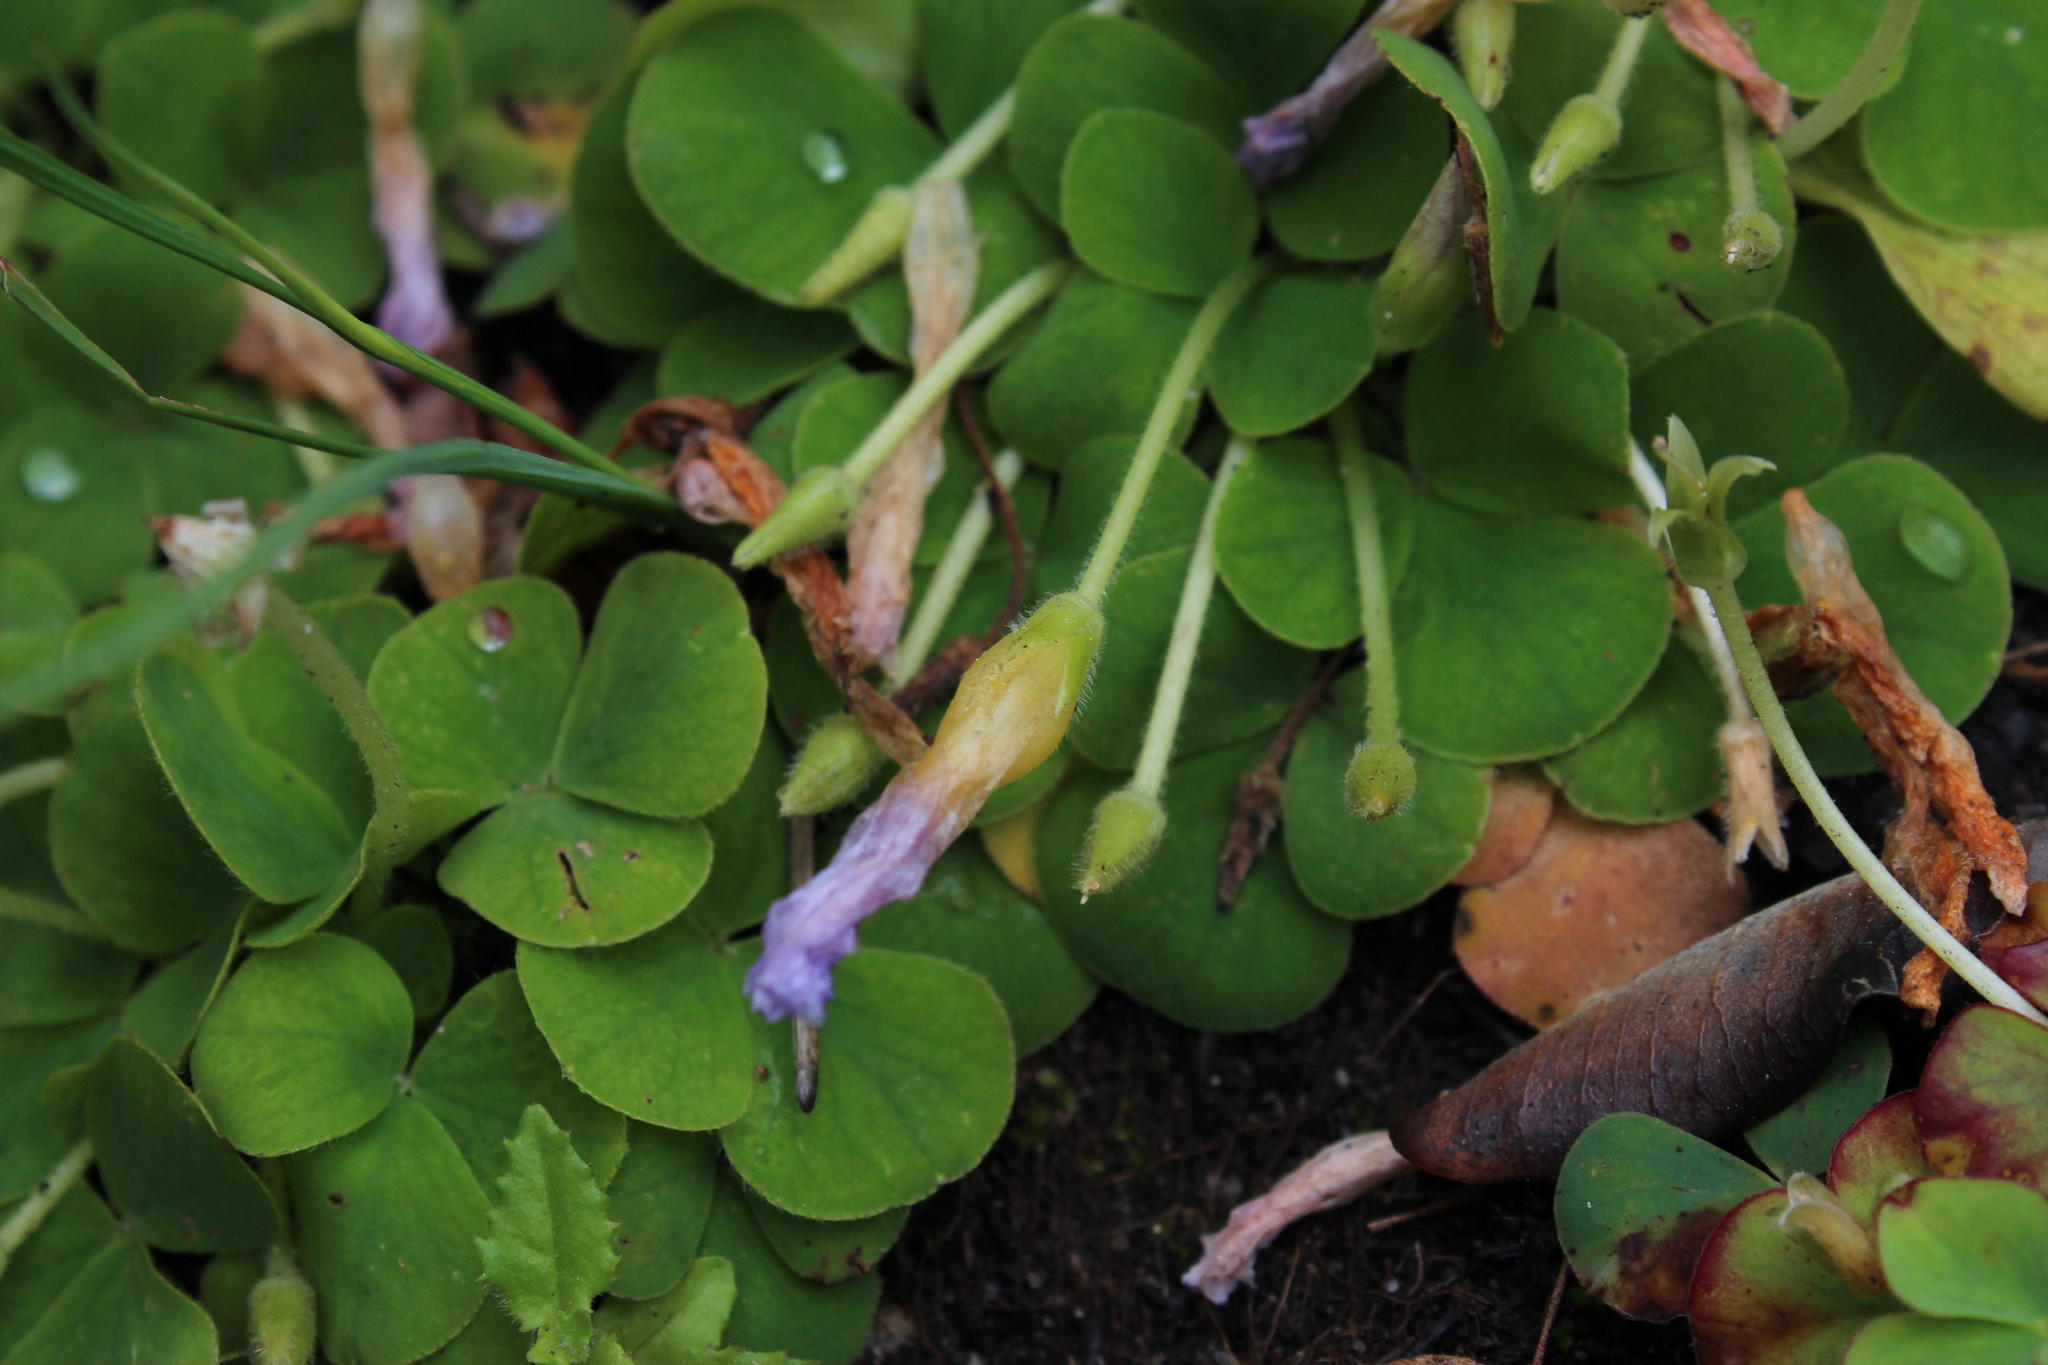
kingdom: Plantae
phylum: Tracheophyta
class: Magnoliopsida
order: Oxalidales
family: Oxalidaceae
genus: Oxalis
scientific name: Oxalis purpurea
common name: Purple woodsorrel
